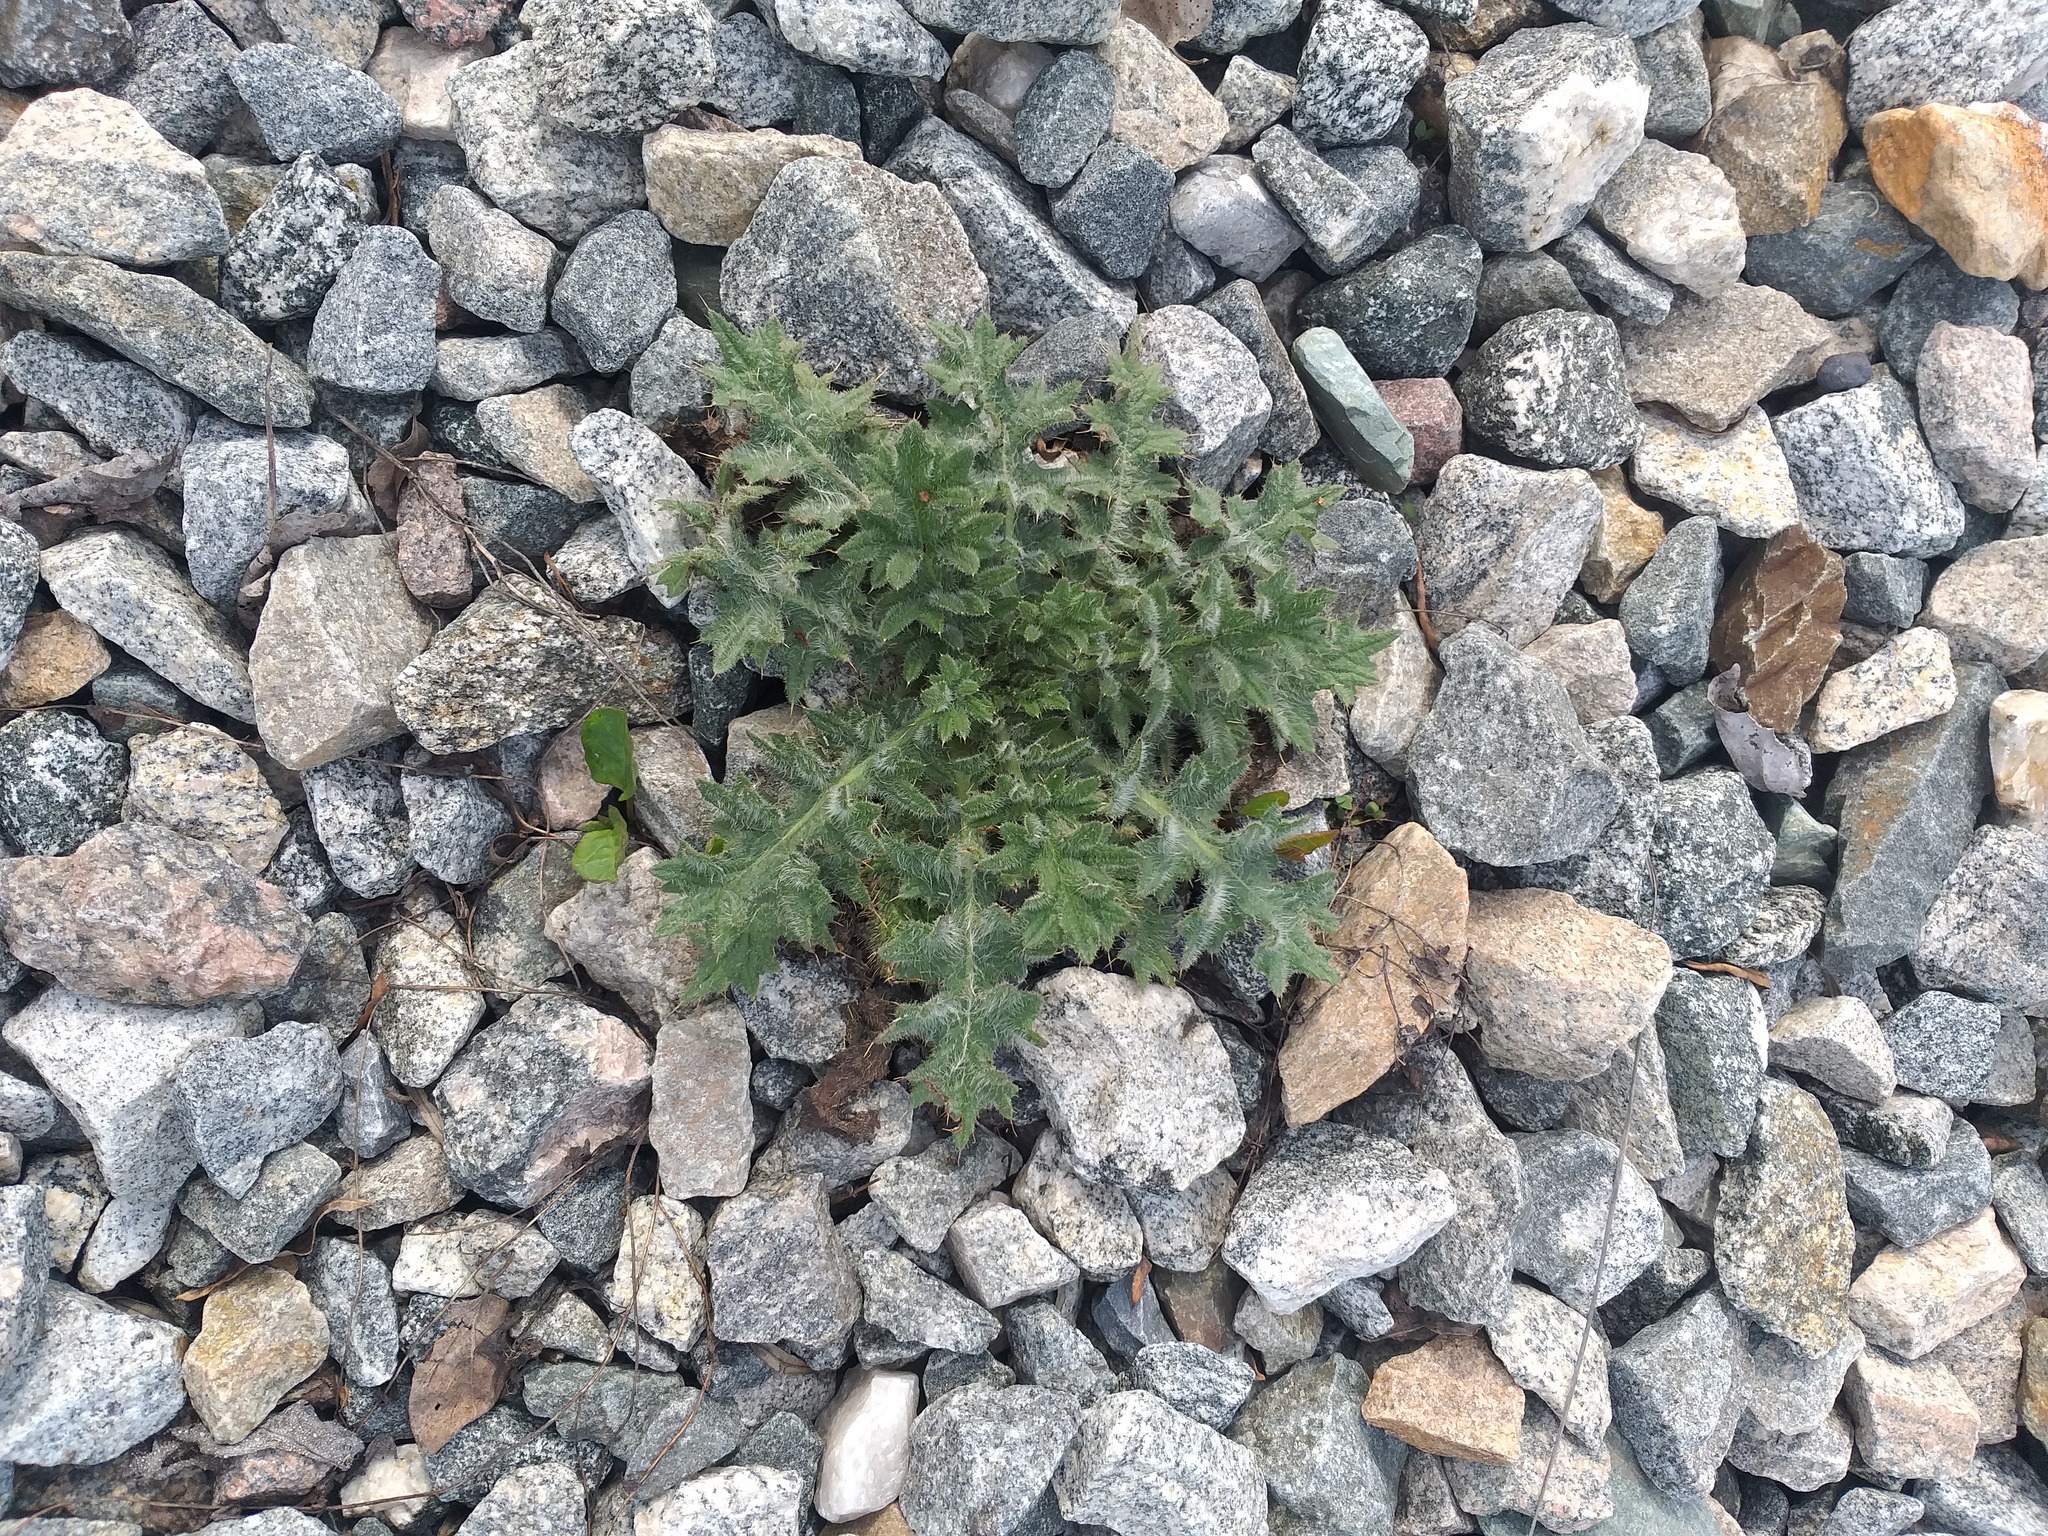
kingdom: Plantae
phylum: Tracheophyta
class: Magnoliopsida
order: Asterales
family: Asteraceae
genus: Cirsium
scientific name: Cirsium vulgare
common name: Bull thistle
